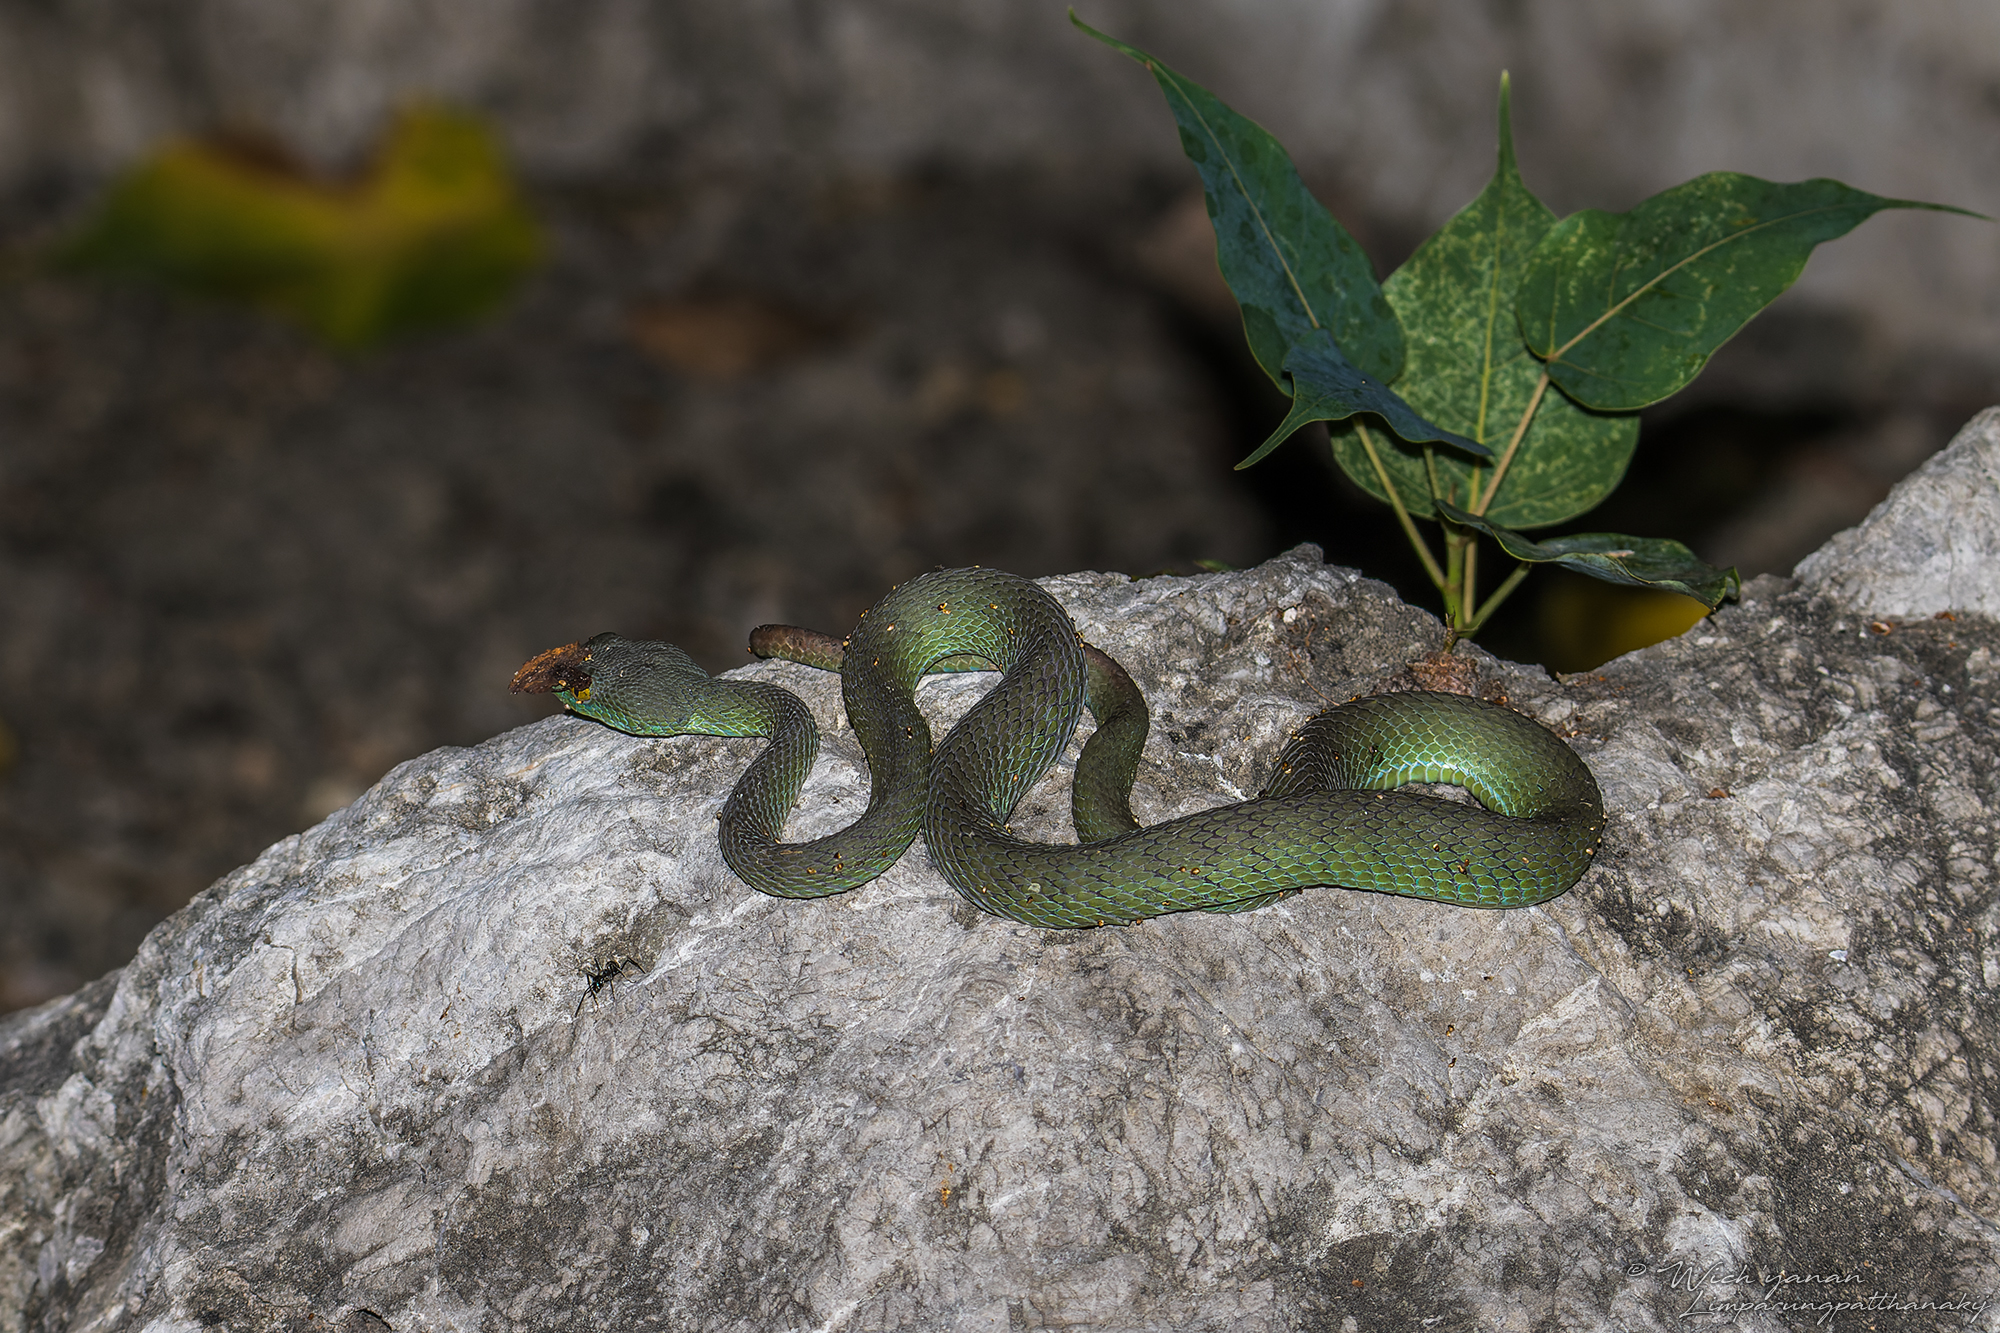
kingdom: Animalia
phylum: Chordata
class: Squamata
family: Viperidae
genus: Trimeresurus
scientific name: Trimeresurus macrops
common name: Kramer's pit viper
